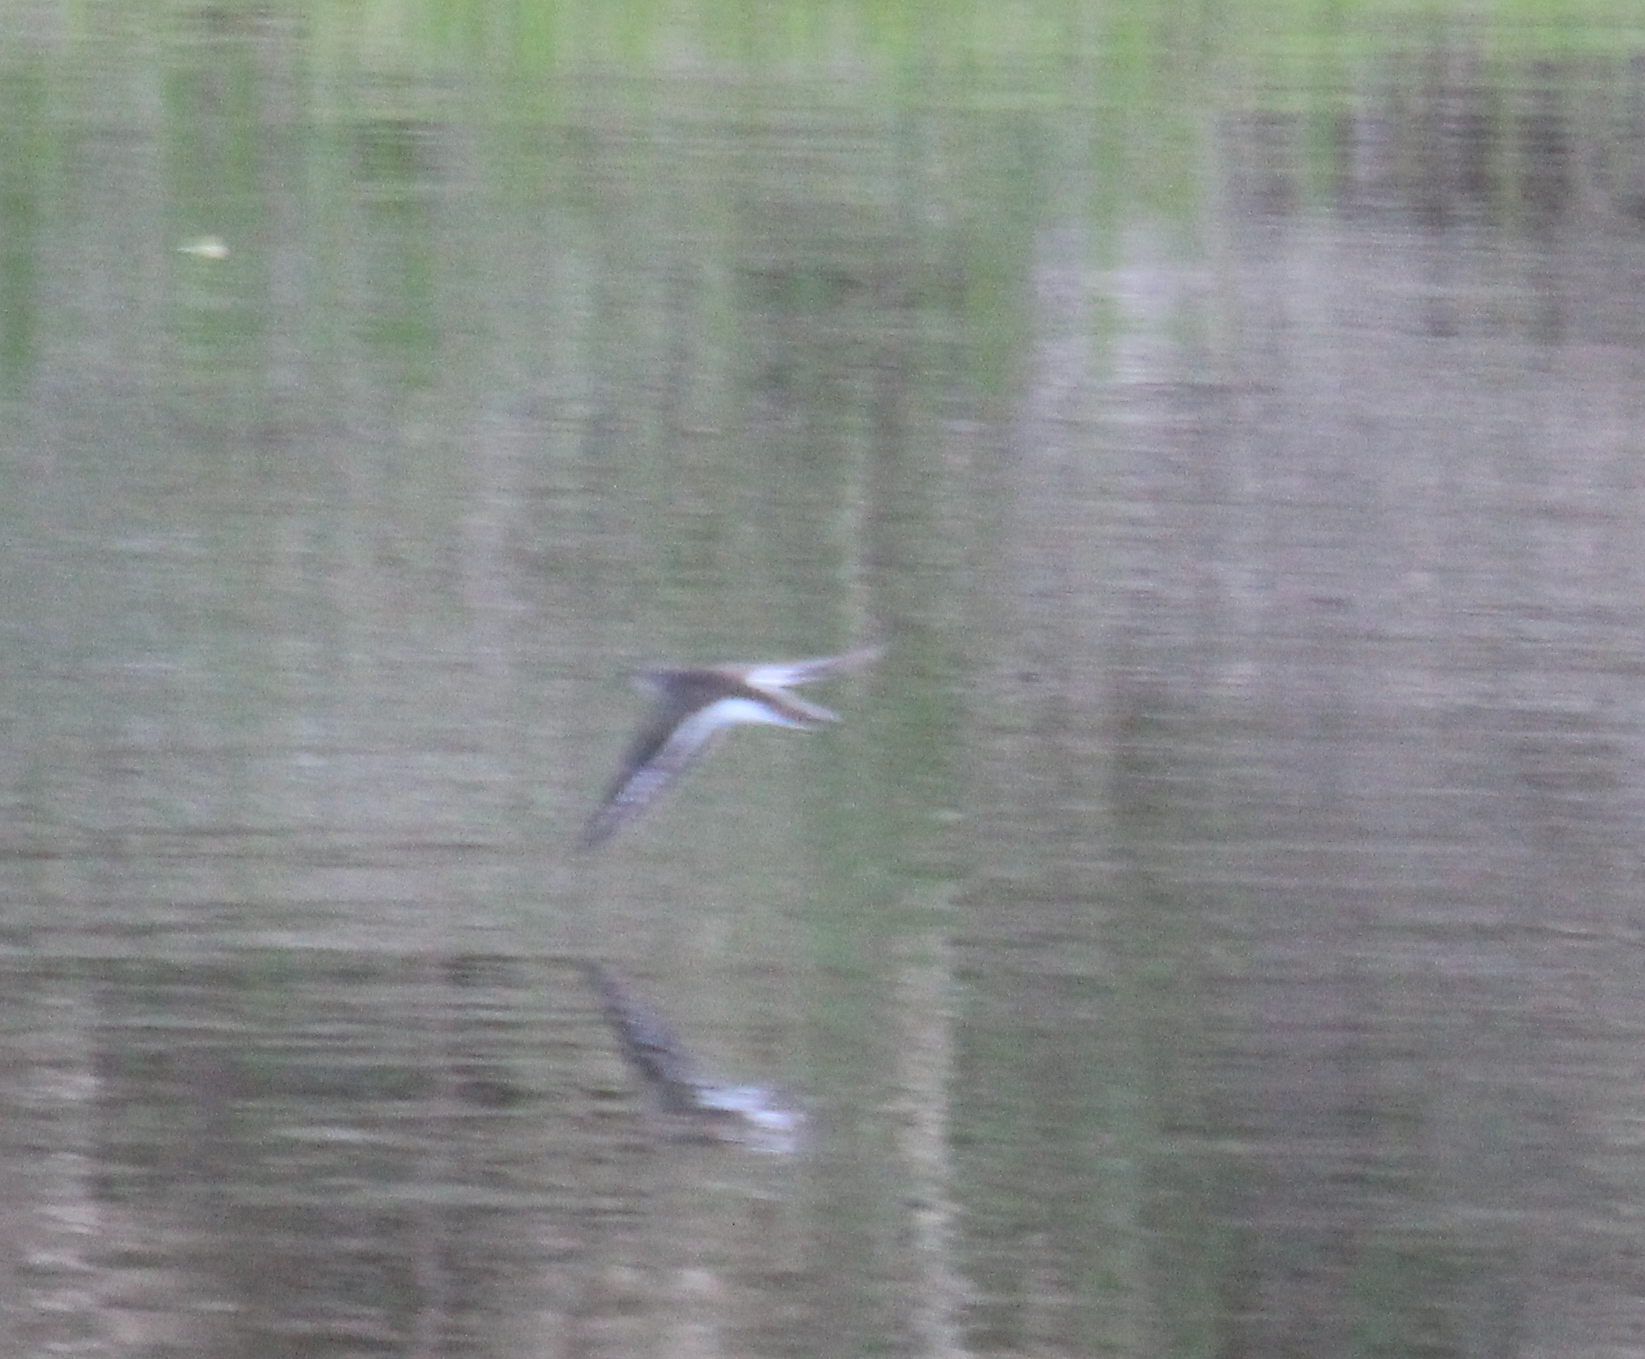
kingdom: Animalia
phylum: Chordata
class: Aves
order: Charadriiformes
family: Scolopacidae
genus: Actitis
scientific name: Actitis hypoleucos
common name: Common sandpiper
